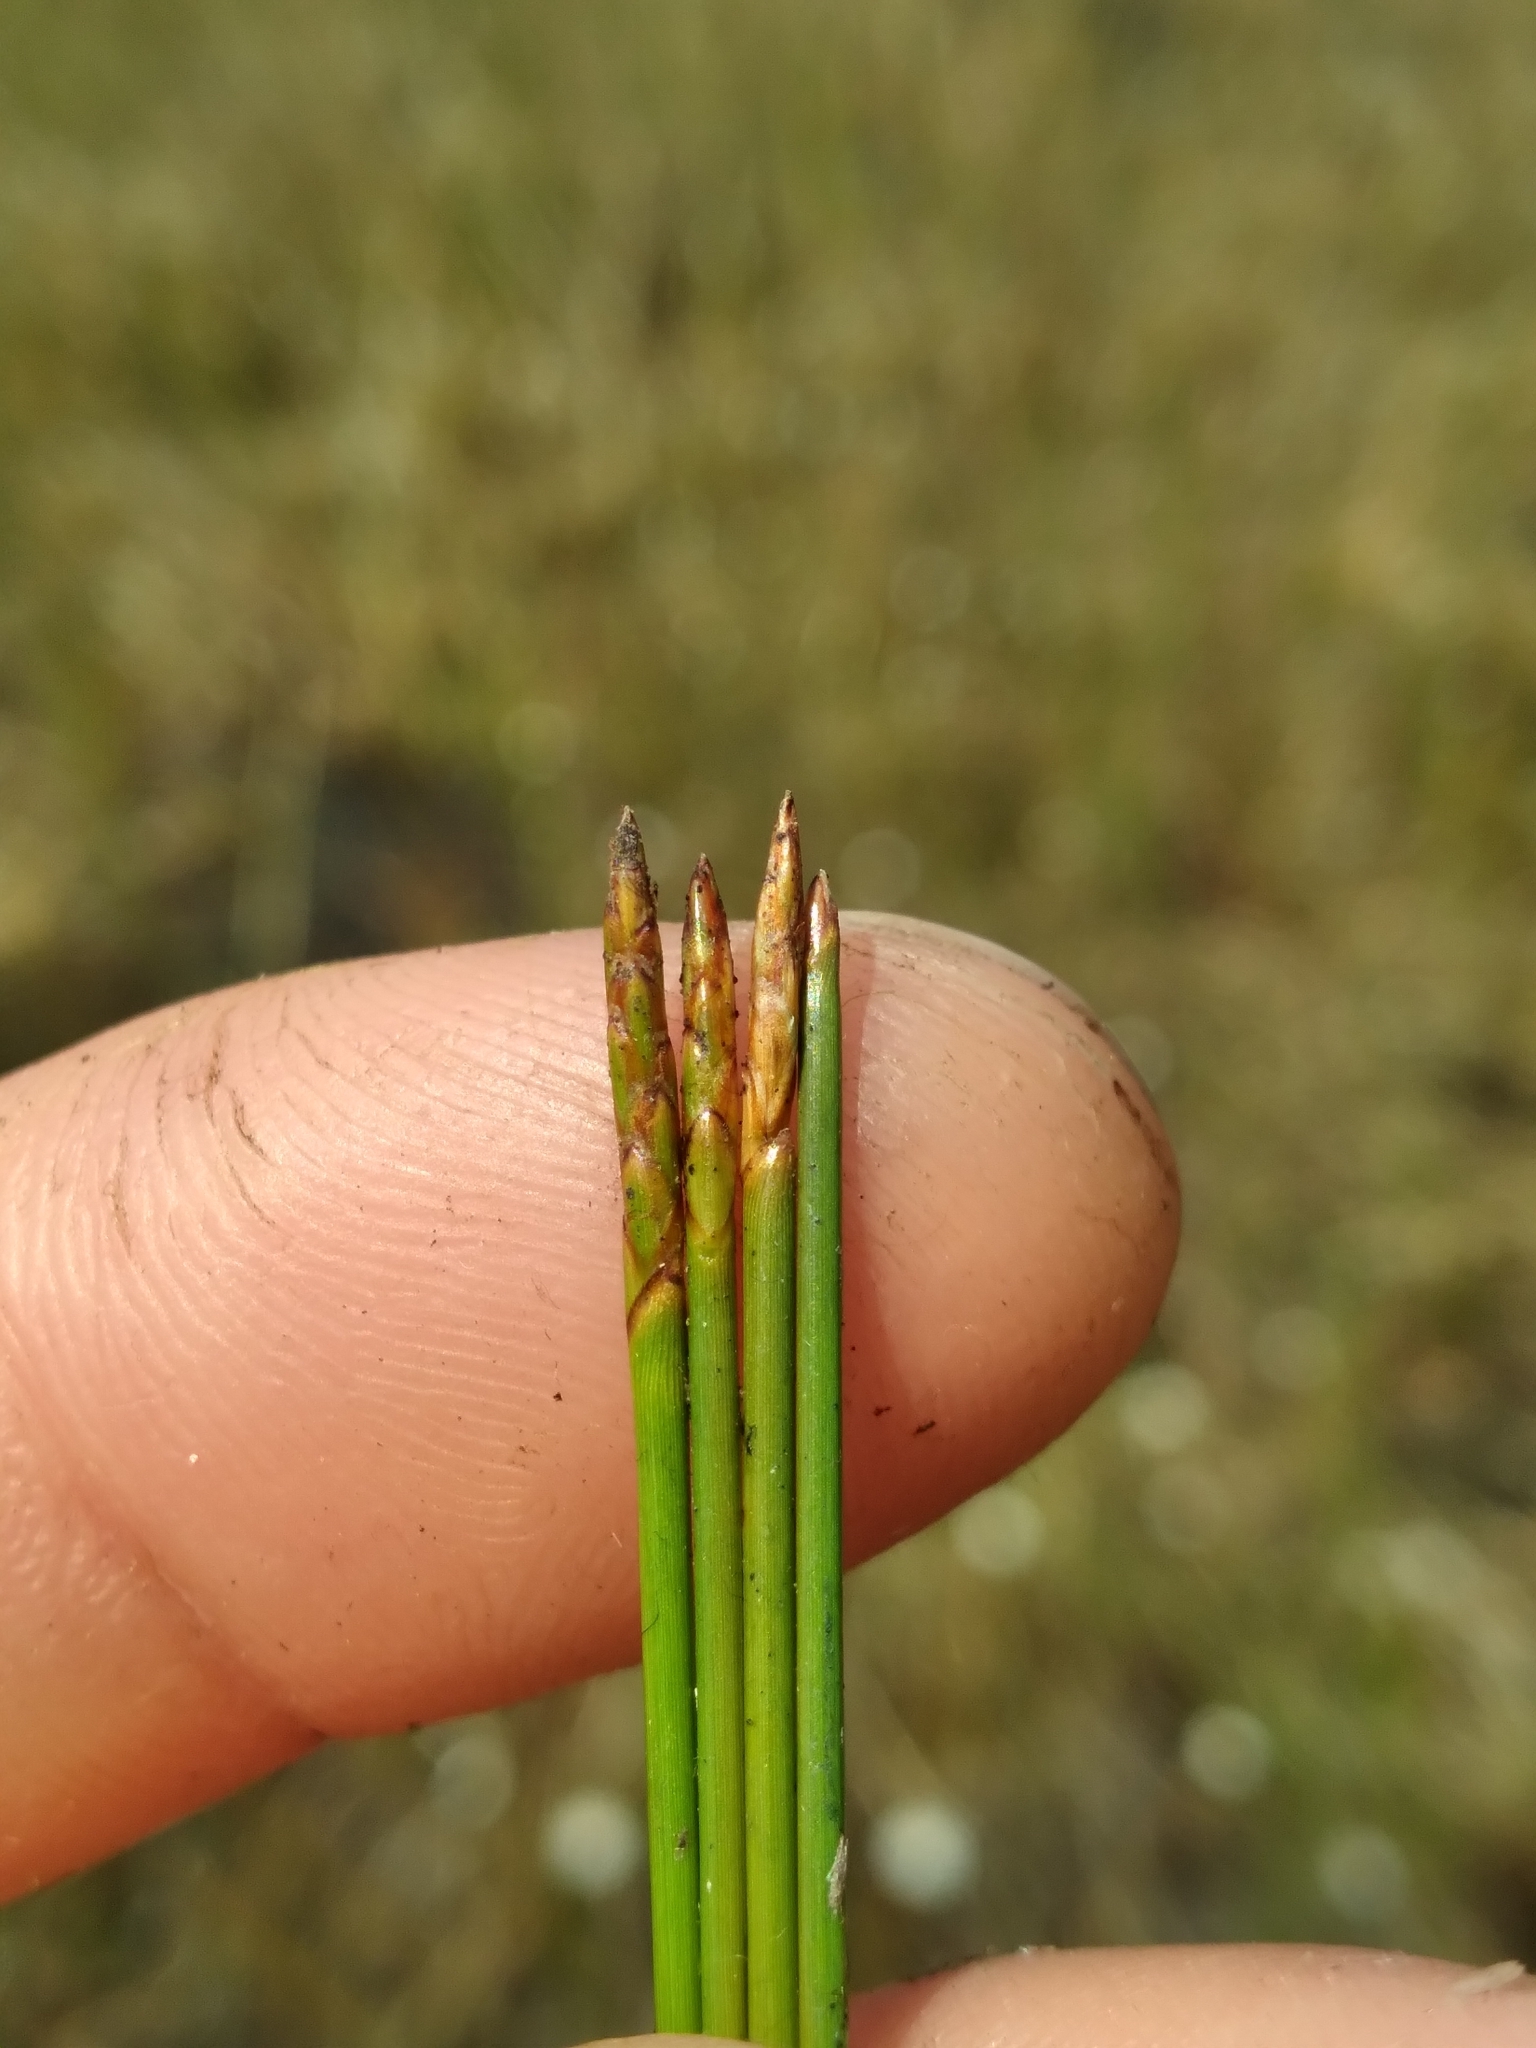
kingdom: Plantae
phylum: Tracheophyta
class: Liliopsida
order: Poales
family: Cyperaceae
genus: Eleocharis
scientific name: Eleocharis elongata
